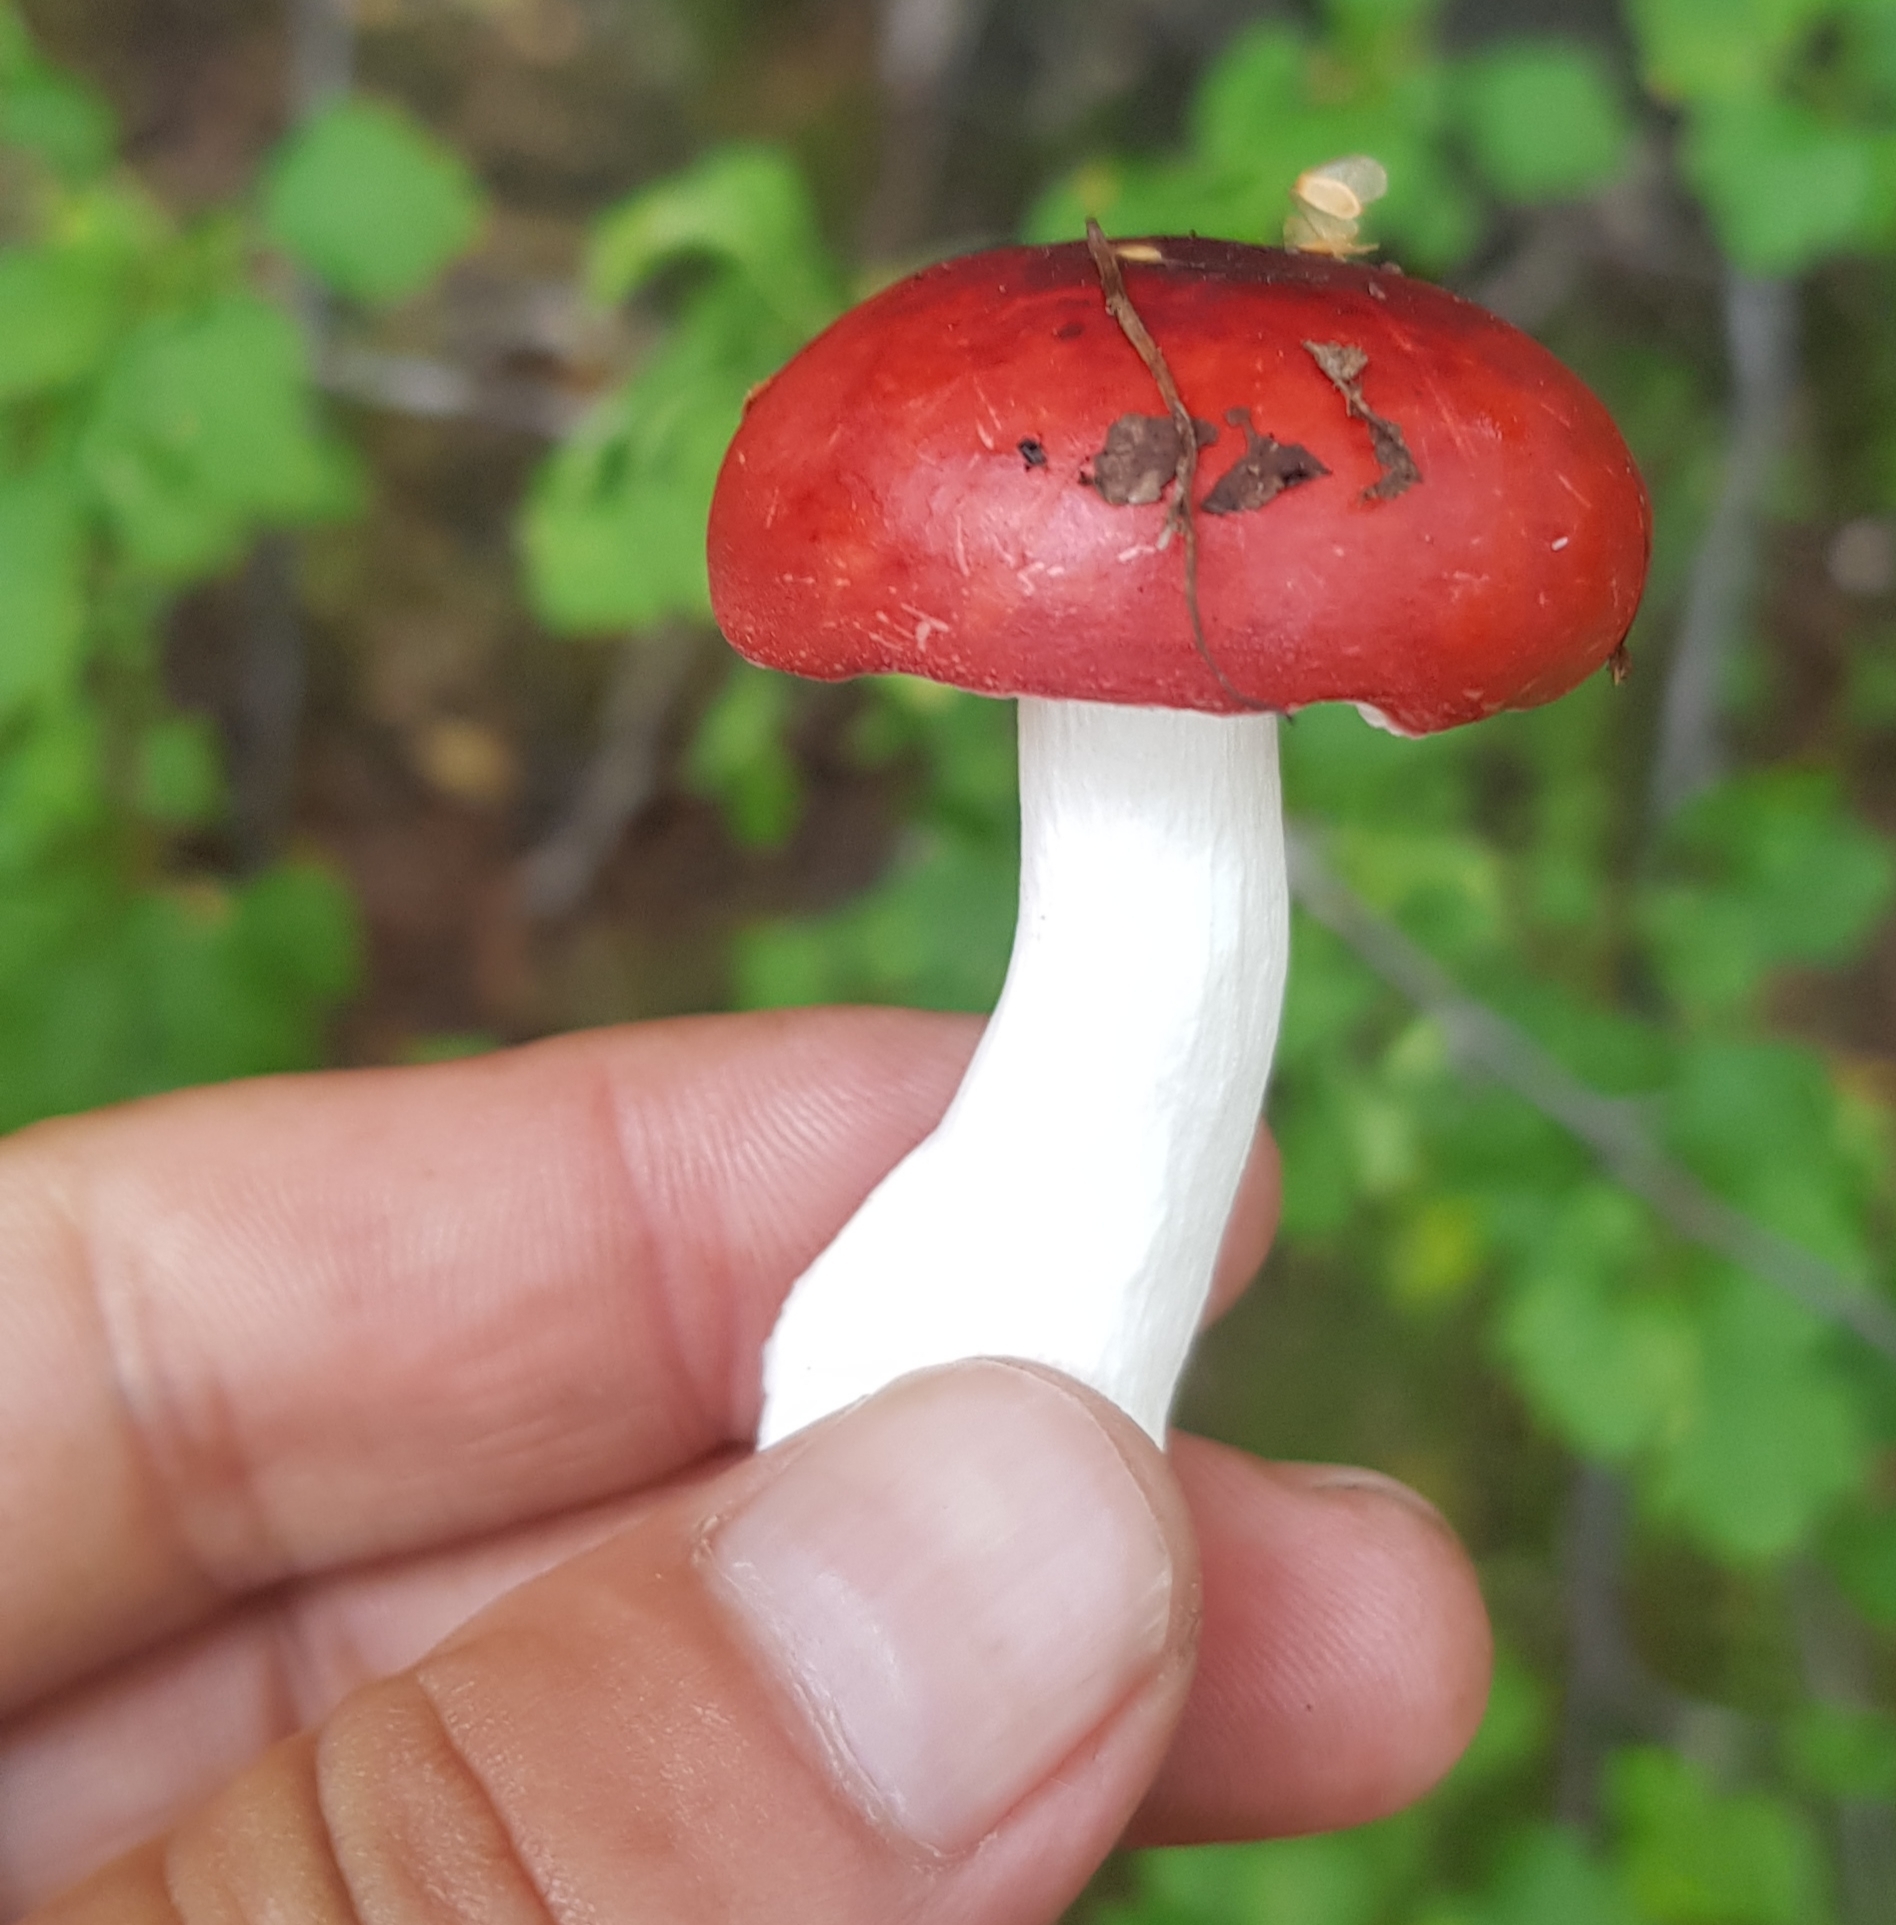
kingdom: Fungi
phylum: Basidiomycota
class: Agaricomycetes
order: Russulales
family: Russulaceae
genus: Russula
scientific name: Russula
